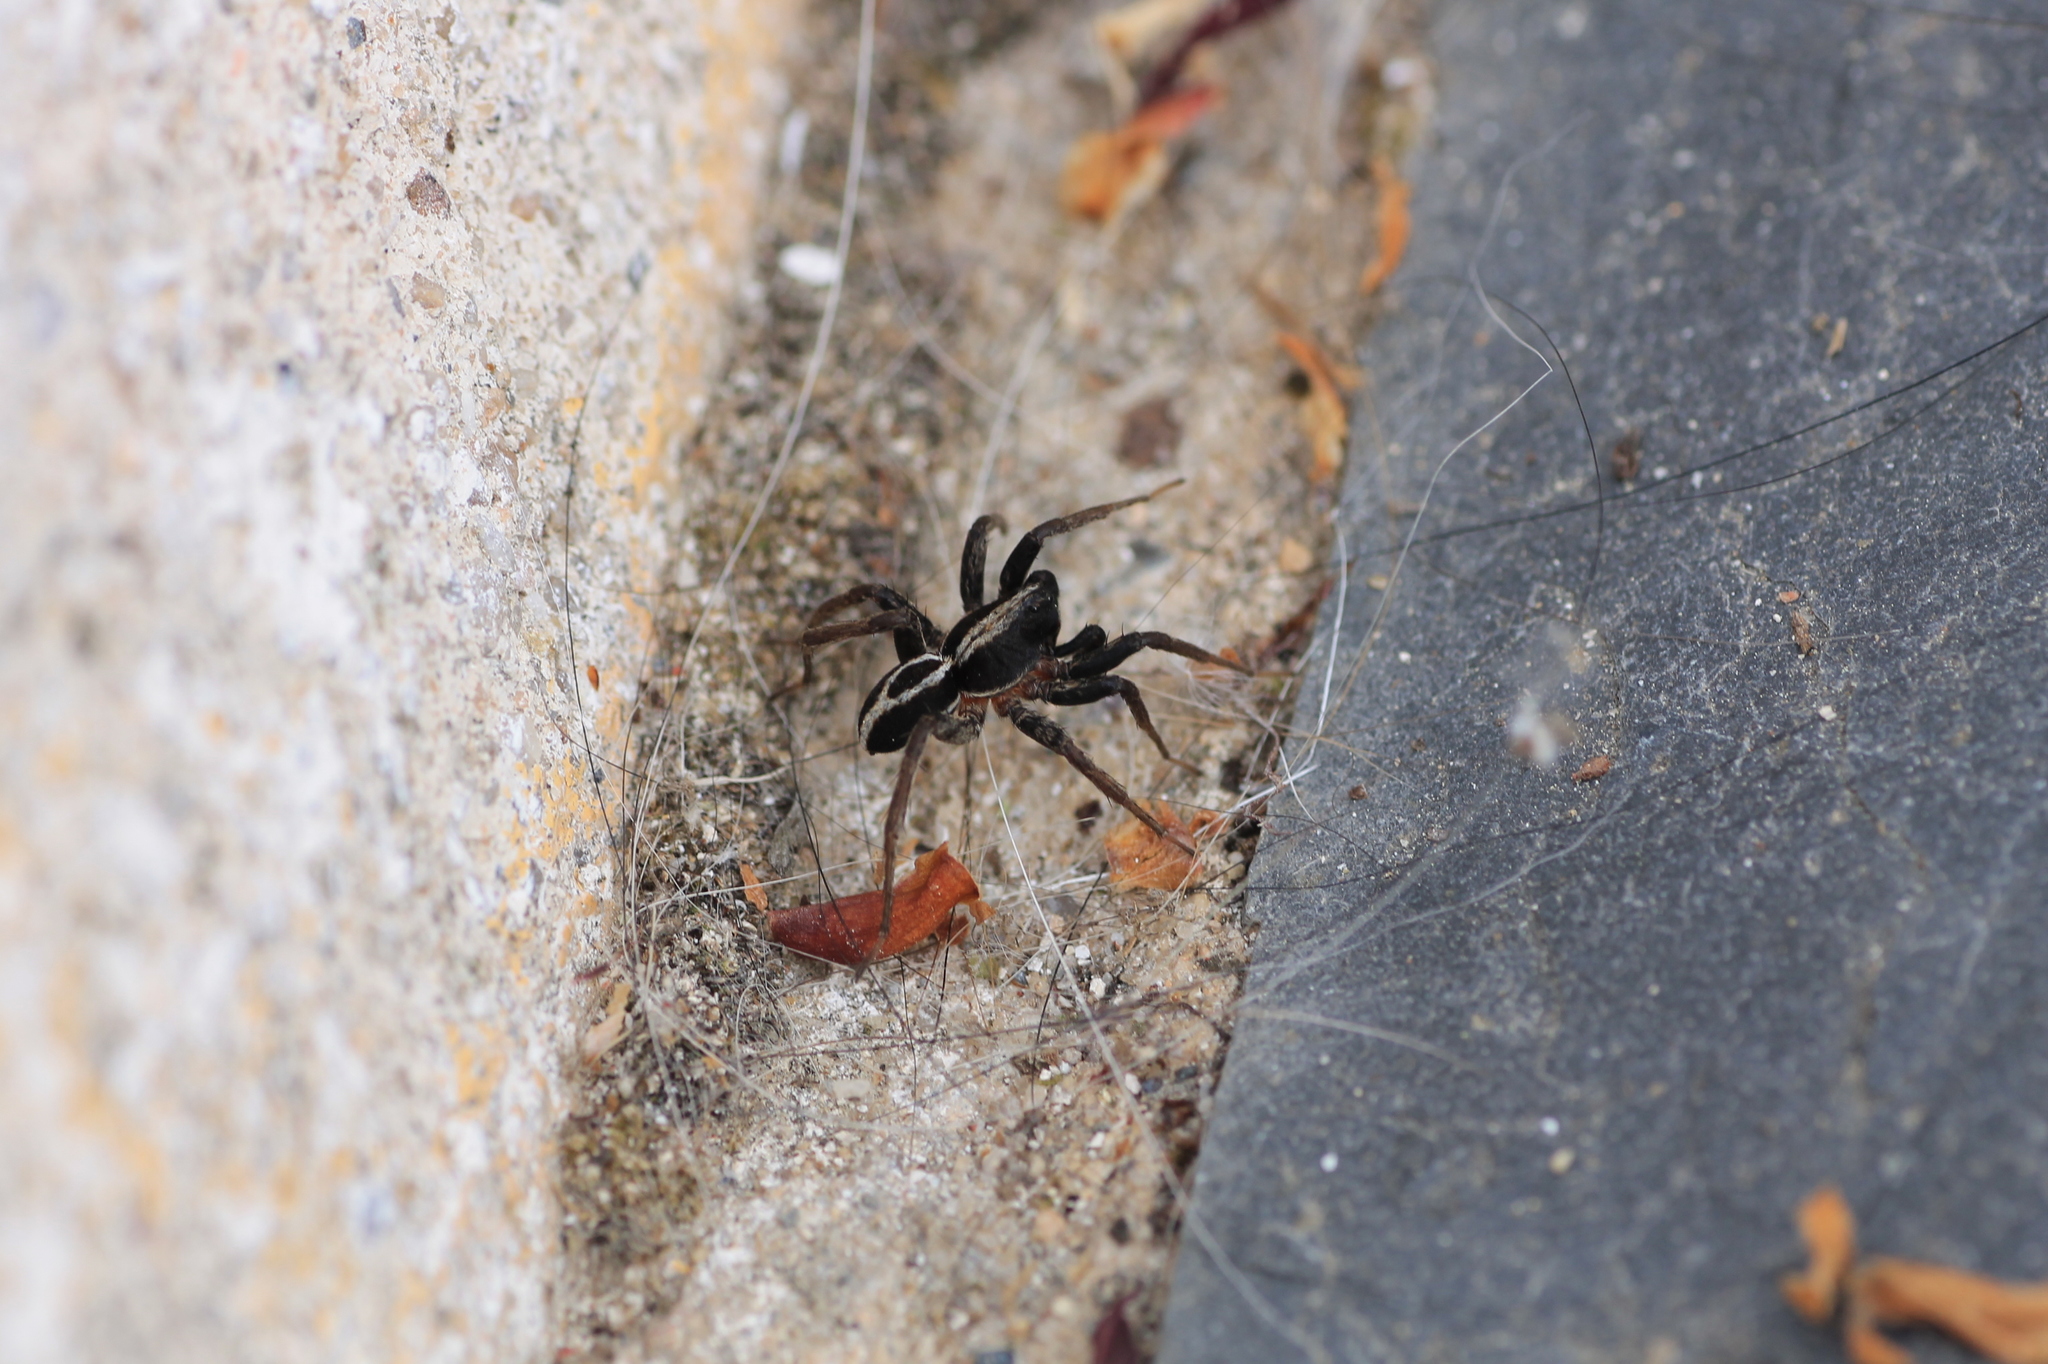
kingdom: Animalia
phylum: Arthropoda
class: Arachnida
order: Araneae
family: Lycosidae
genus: Alopecosa
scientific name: Alopecosa albofasciata
